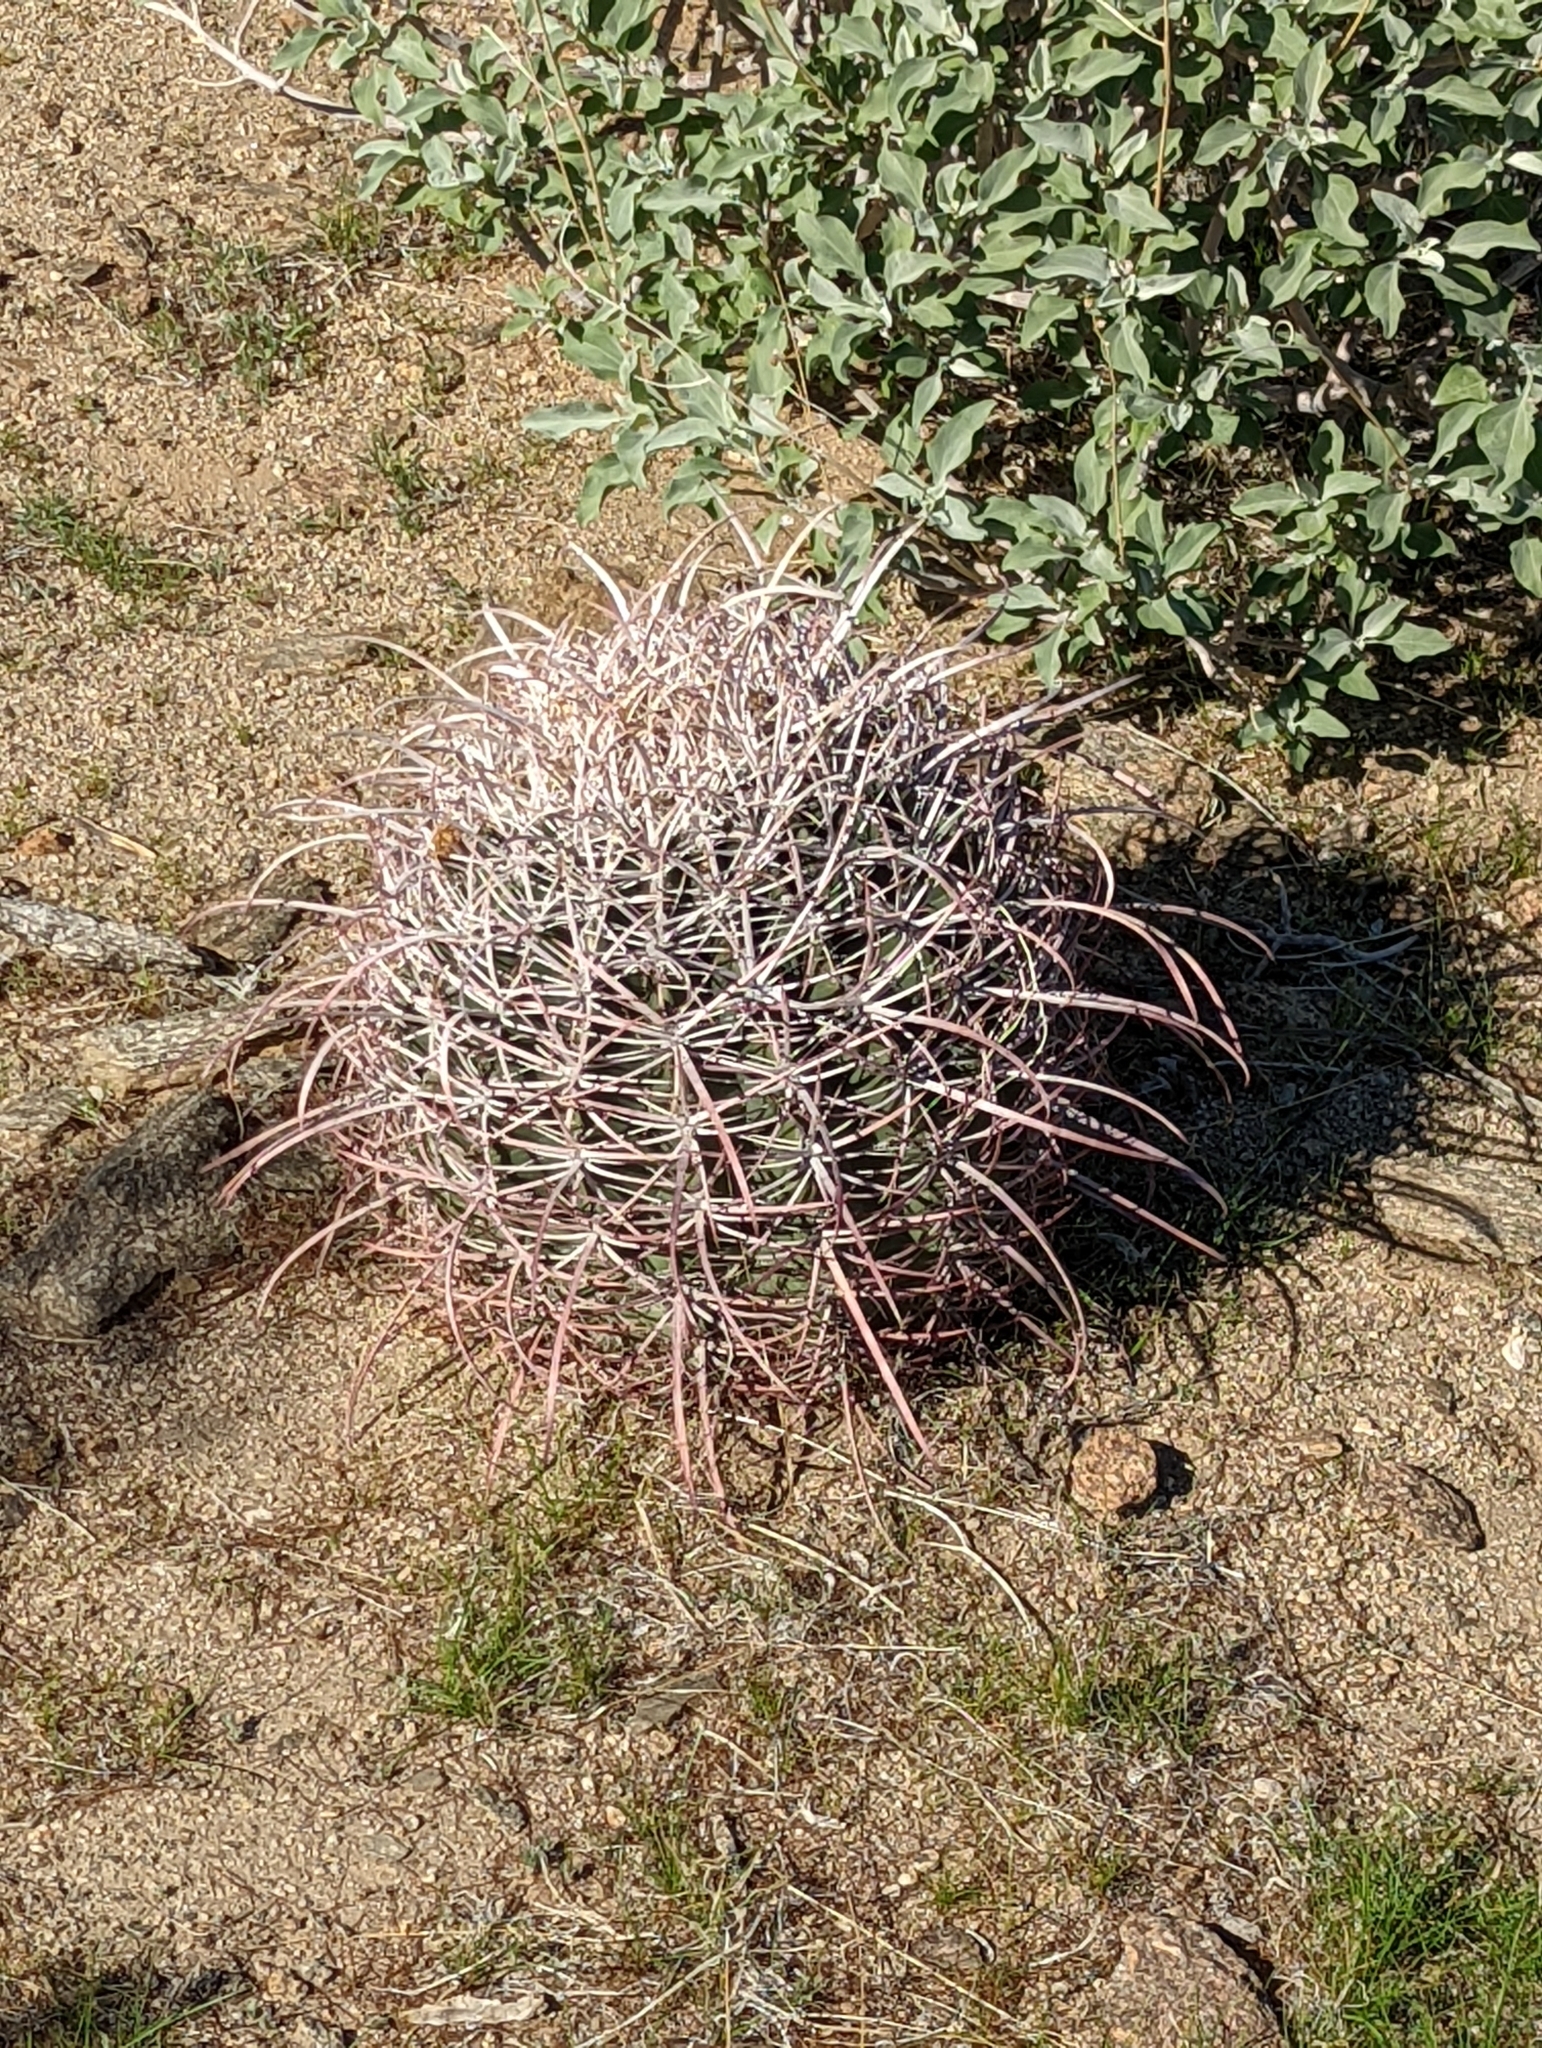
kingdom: Plantae
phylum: Tracheophyta
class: Magnoliopsida
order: Caryophyllales
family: Cactaceae
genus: Ferocactus
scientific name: Ferocactus cylindraceus
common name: California barrel cactus
